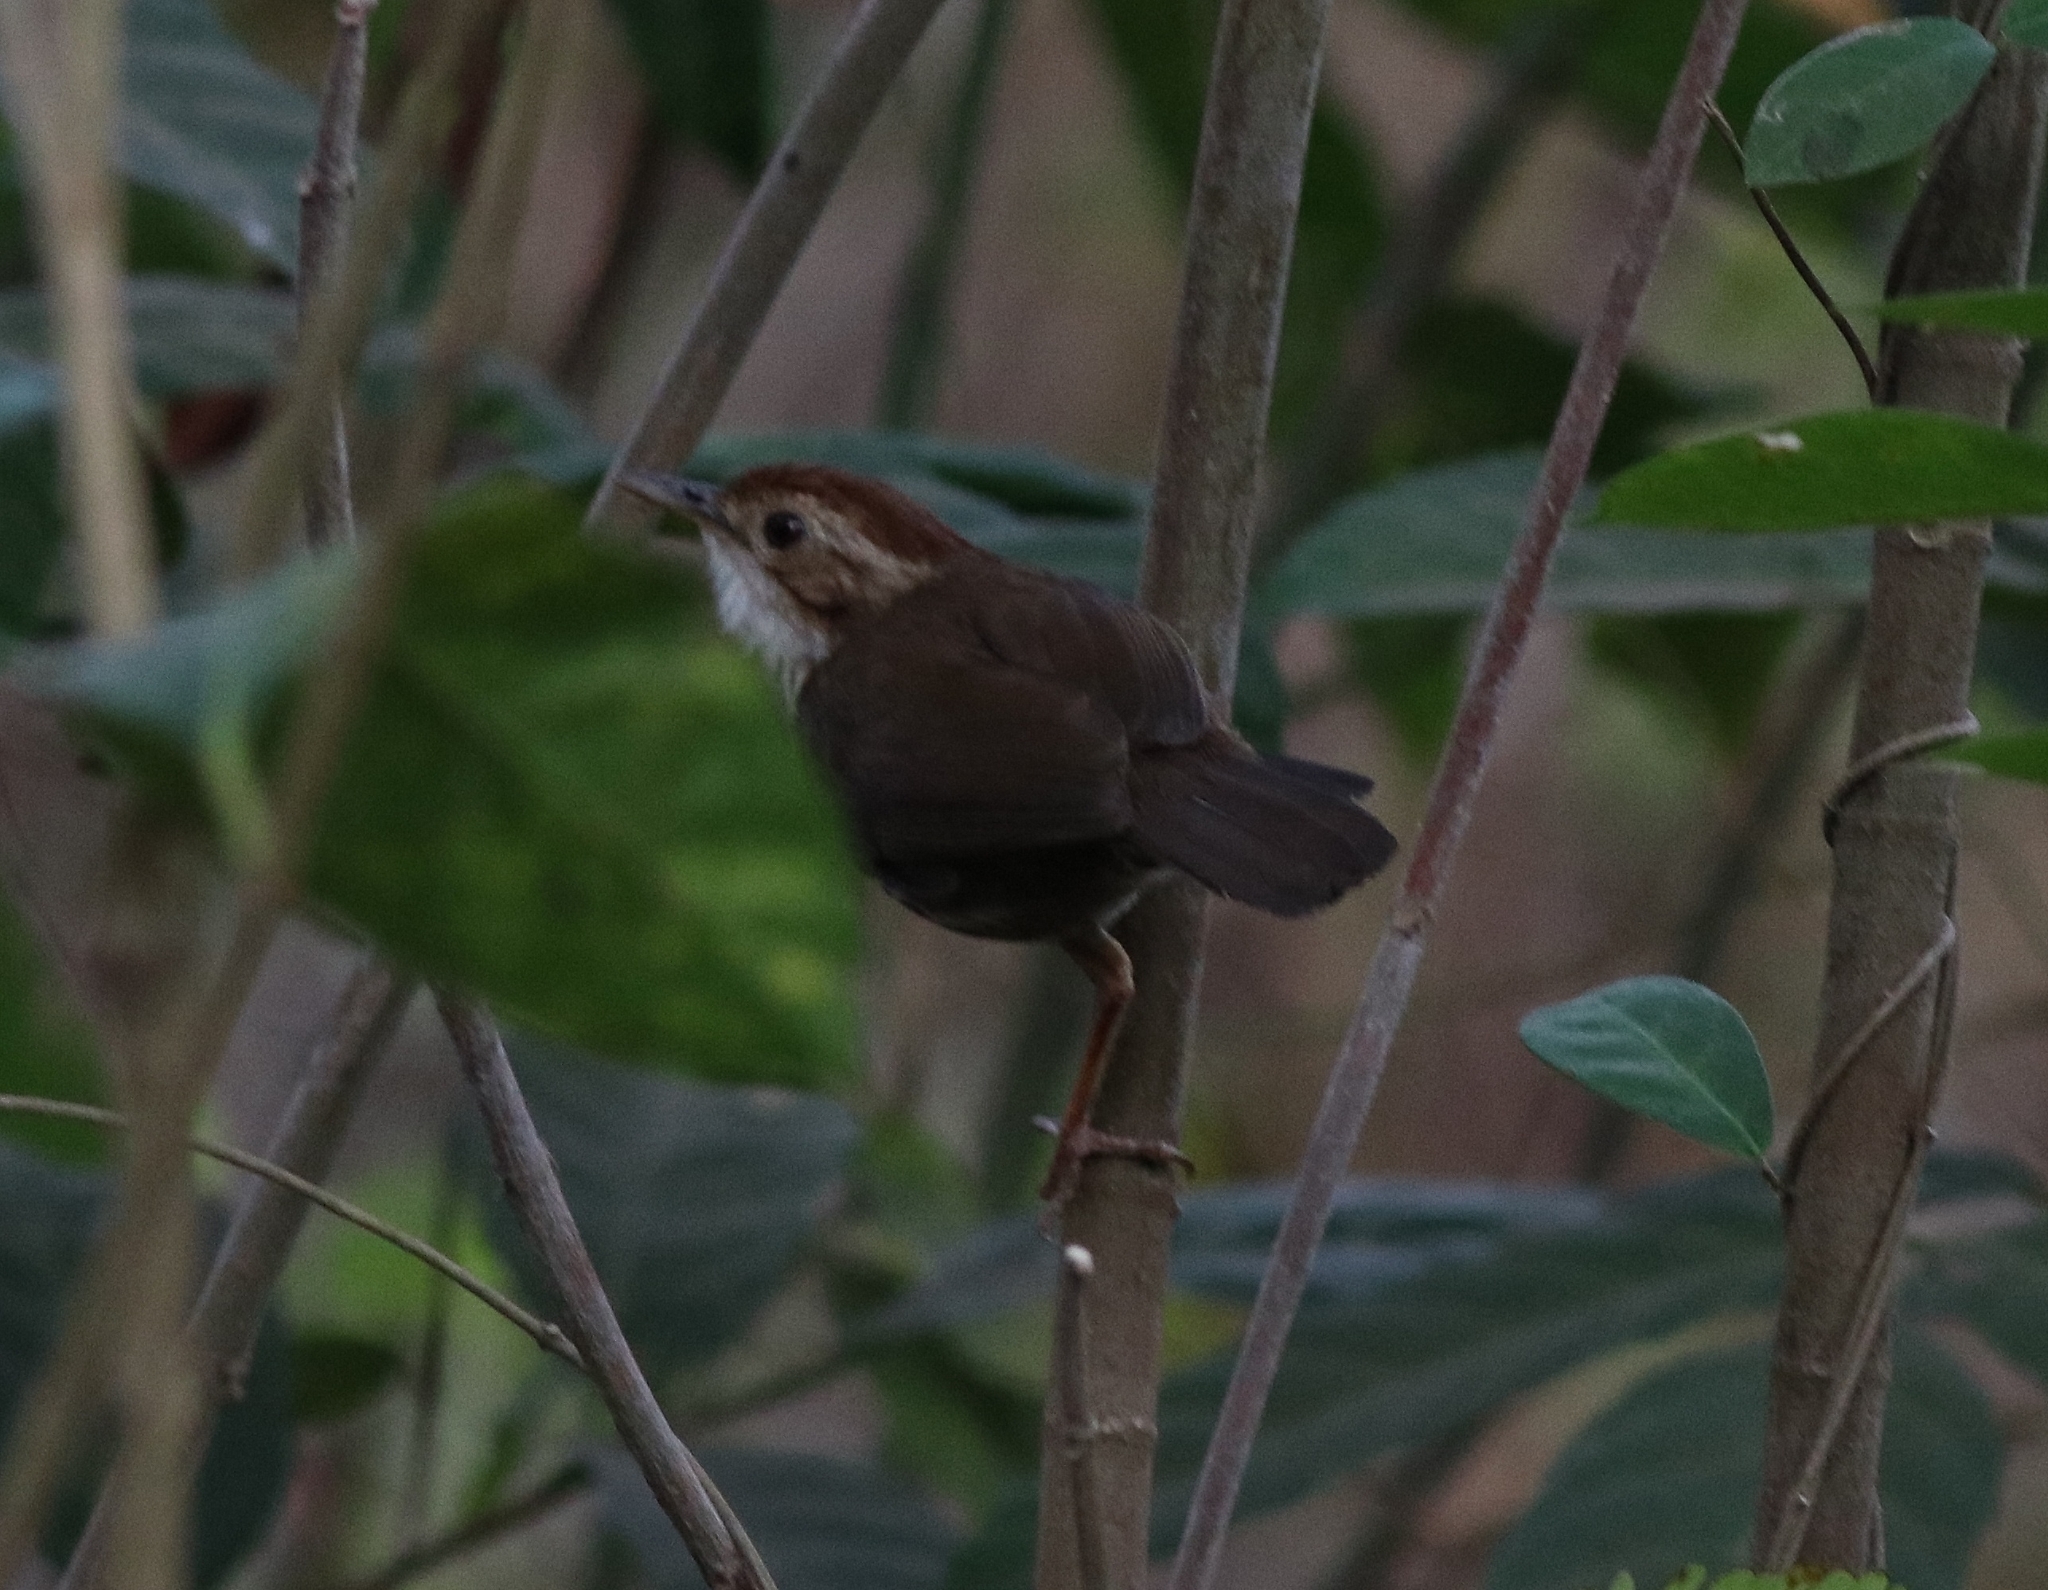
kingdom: Animalia
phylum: Chordata
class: Aves
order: Passeriformes
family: Pellorneidae
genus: Pellorneum
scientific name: Pellorneum ruficeps
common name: Puff-throated babbler
